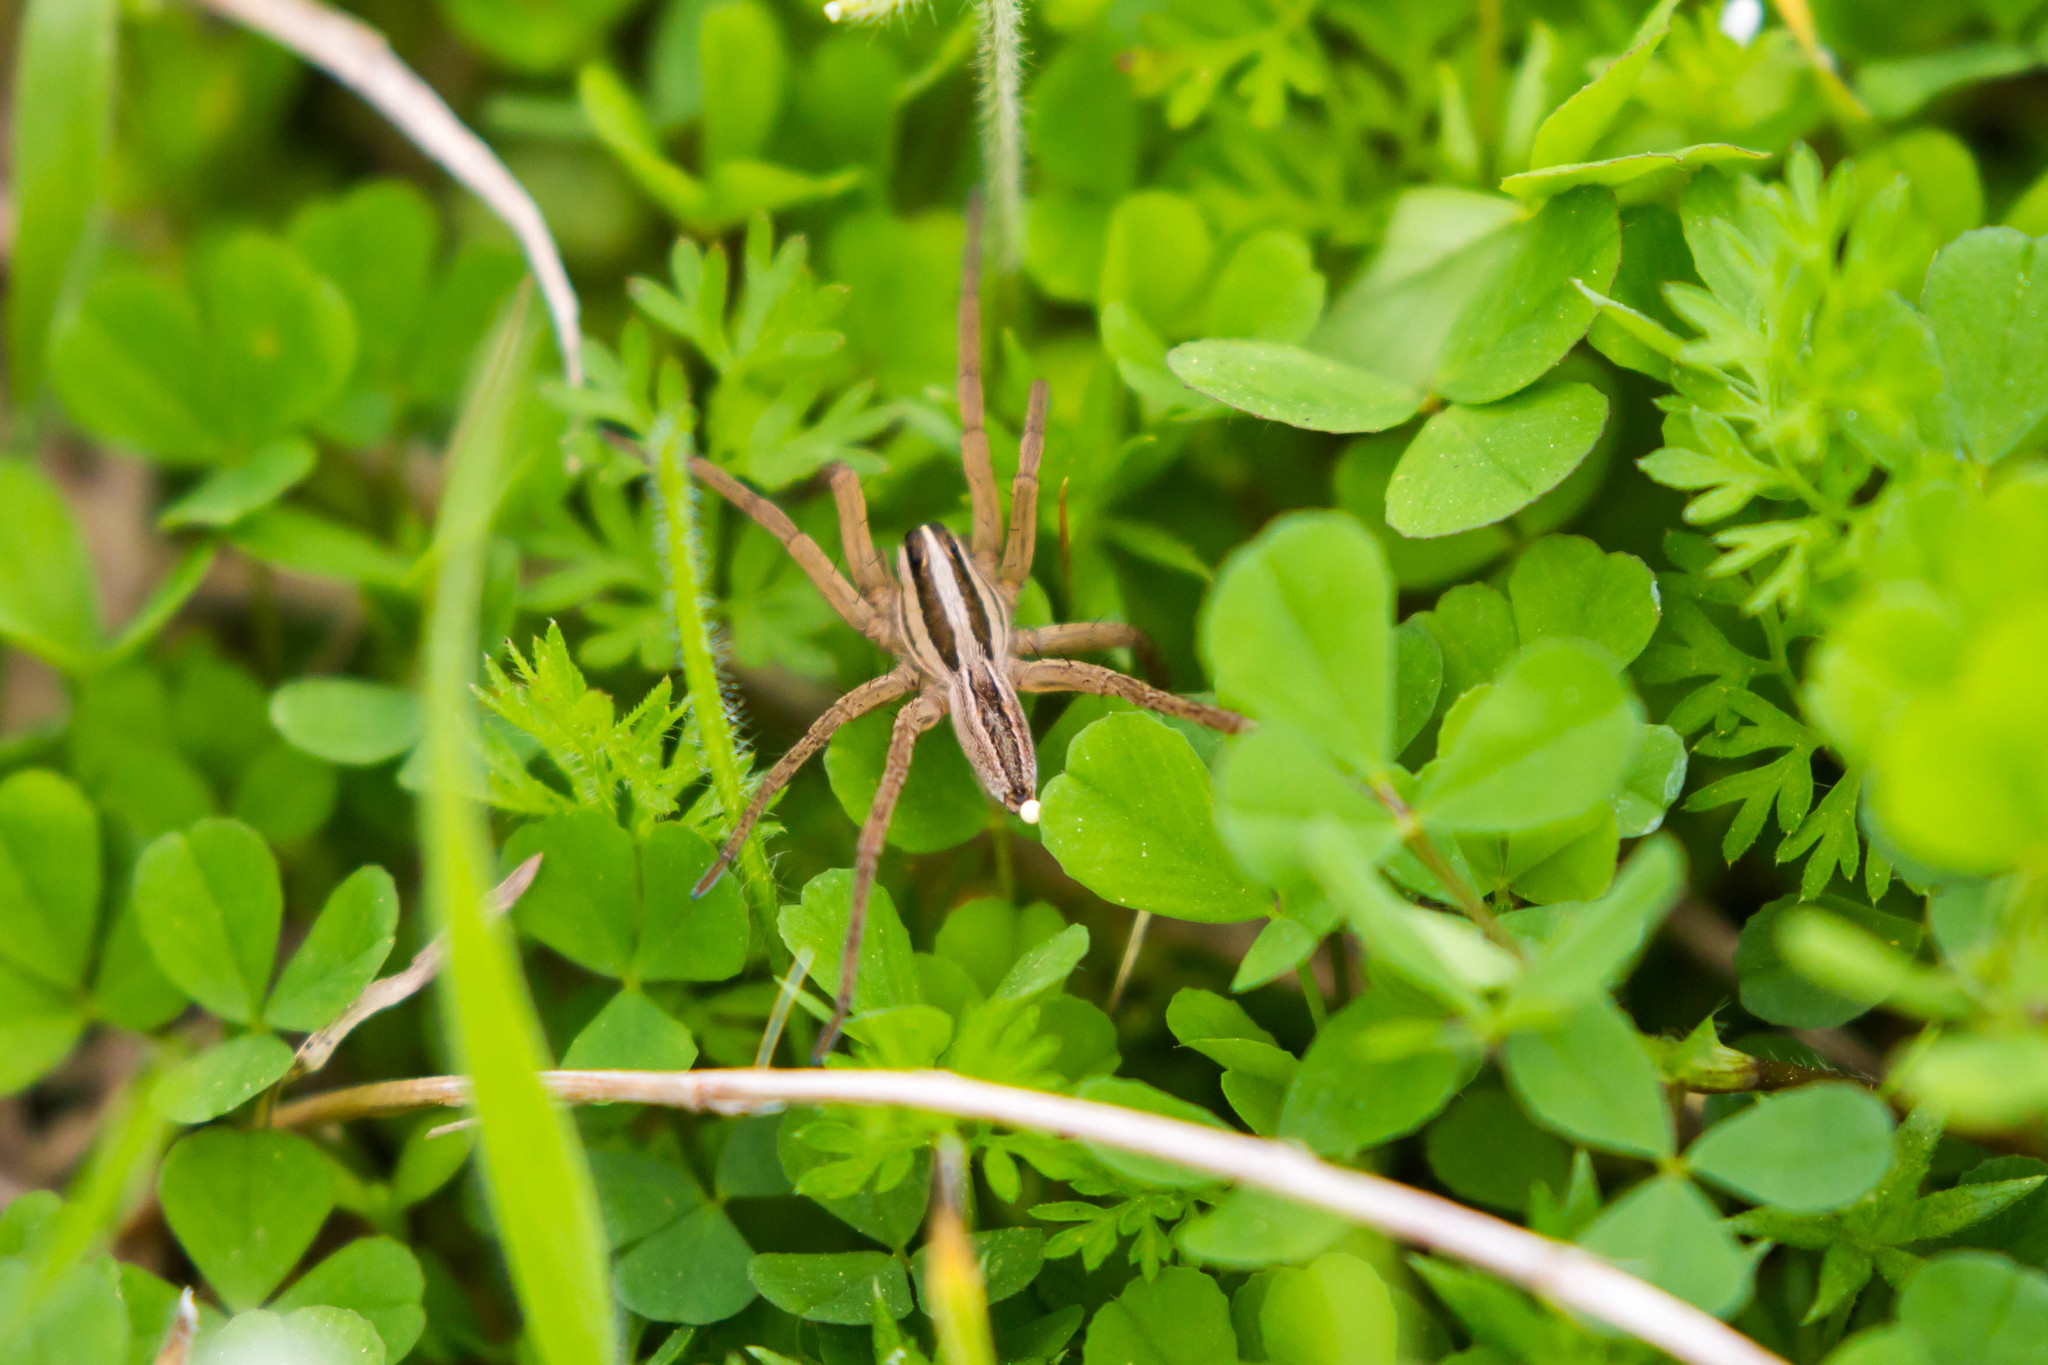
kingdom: Animalia
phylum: Arthropoda
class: Arachnida
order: Araneae
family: Lycosidae
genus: Rabidosa
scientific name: Rabidosa rabida
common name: Rabid wolf spider
